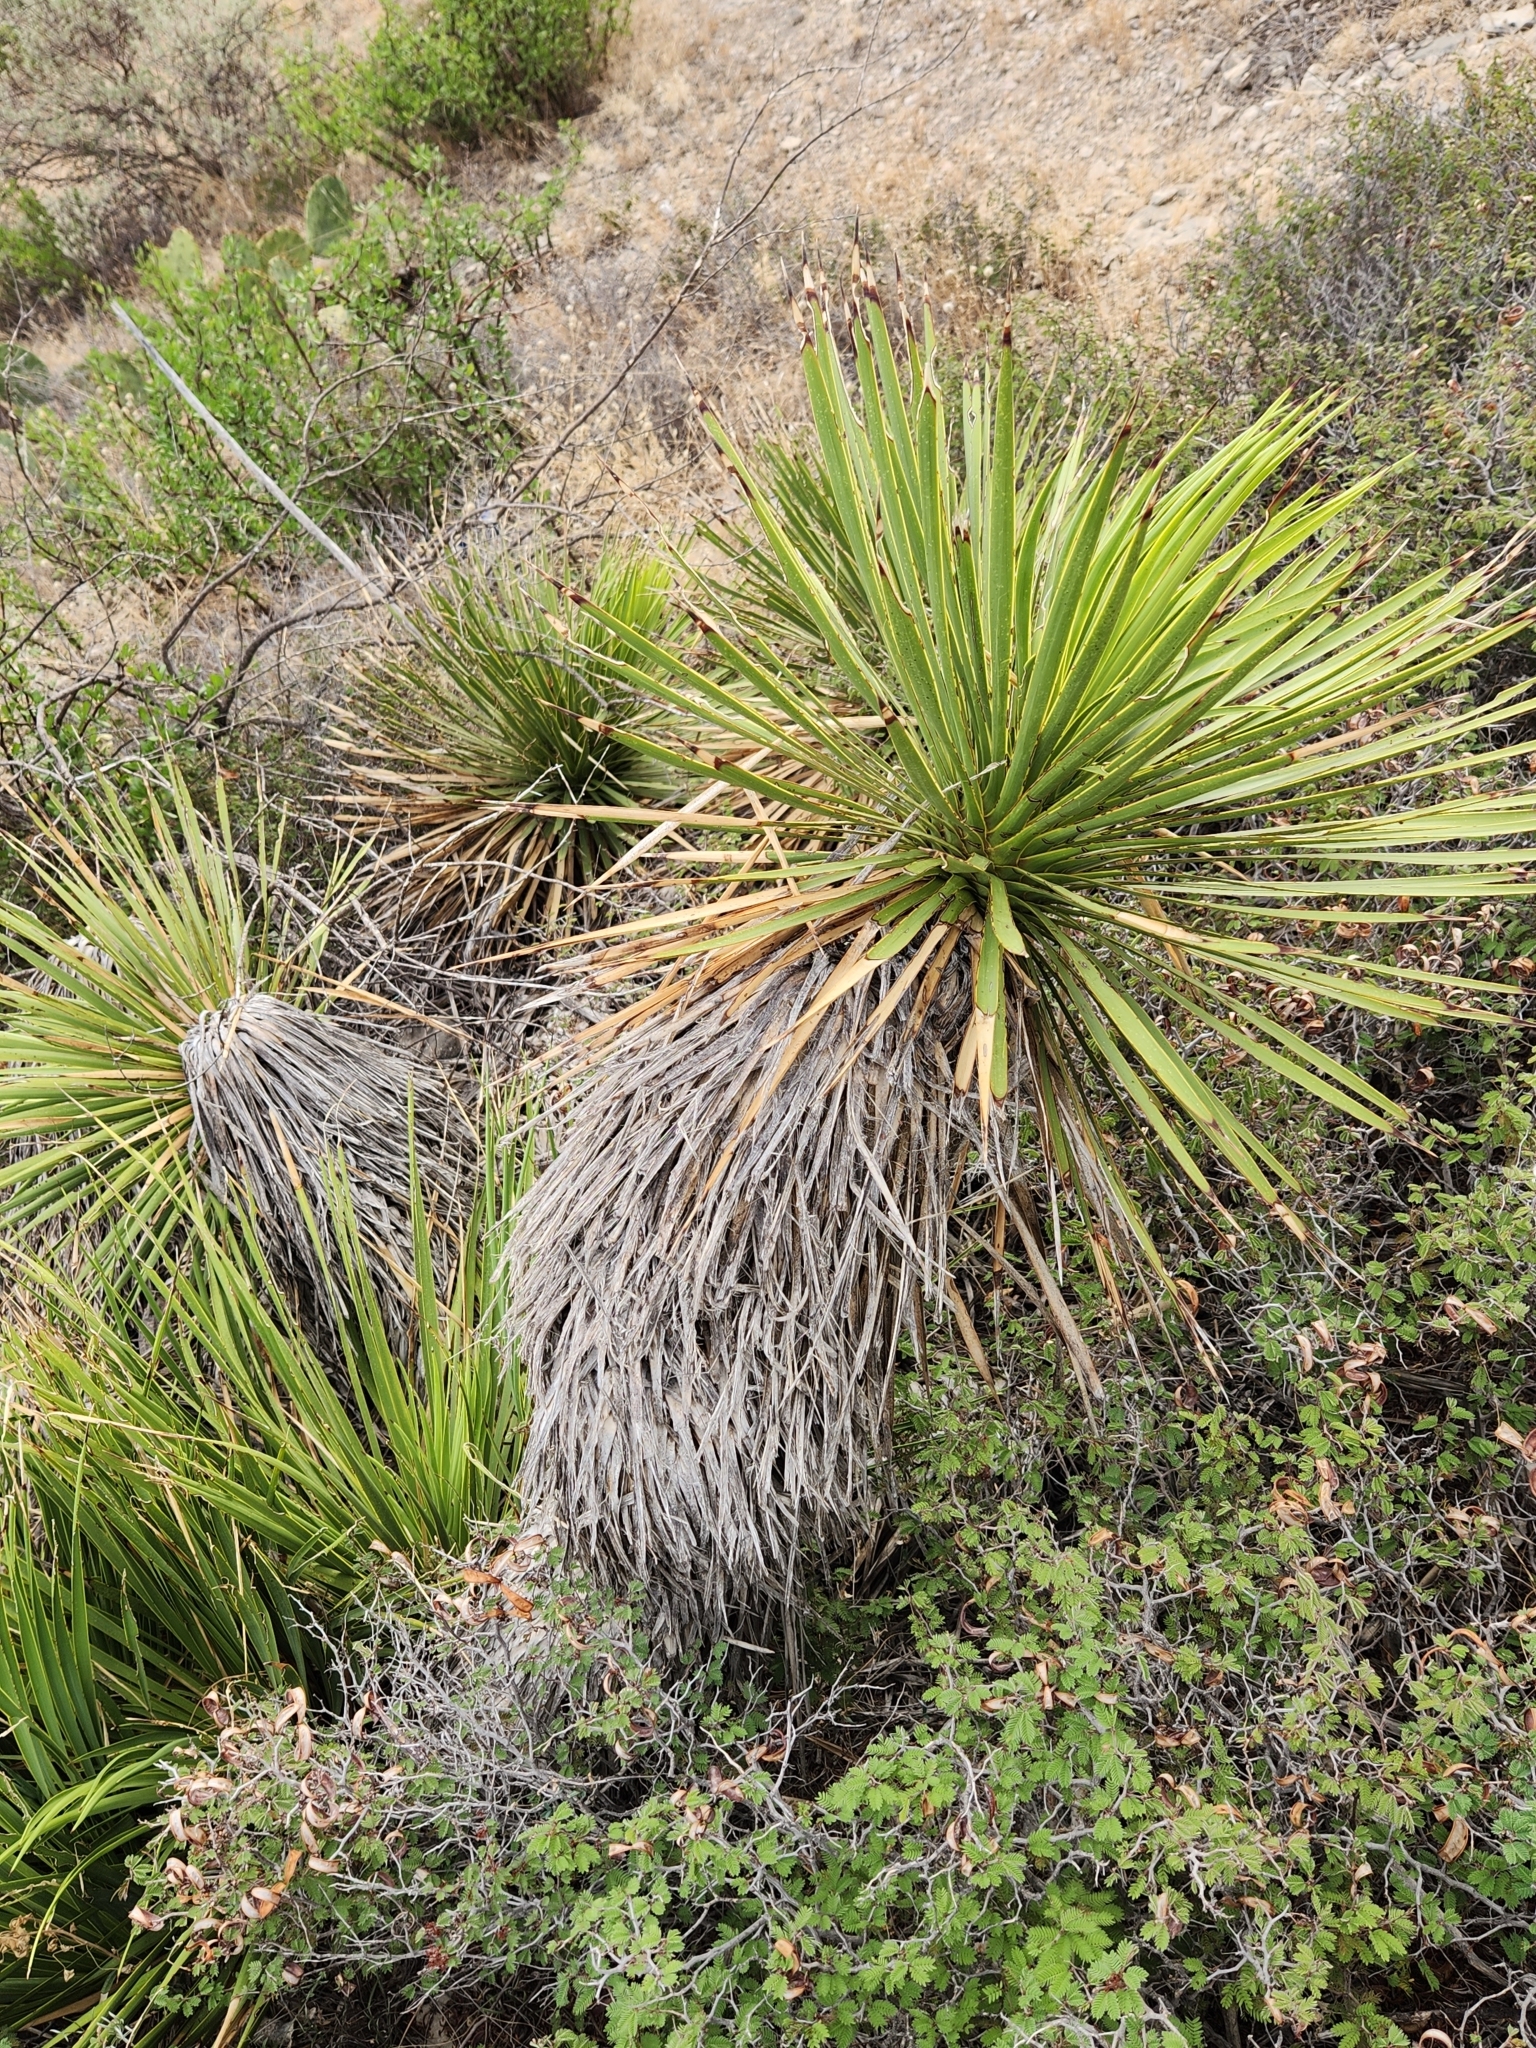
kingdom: Plantae
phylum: Tracheophyta
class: Liliopsida
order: Asparagales
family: Asparagaceae
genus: Yucca
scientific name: Yucca thompsoniana
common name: Trans-pecos yucca
